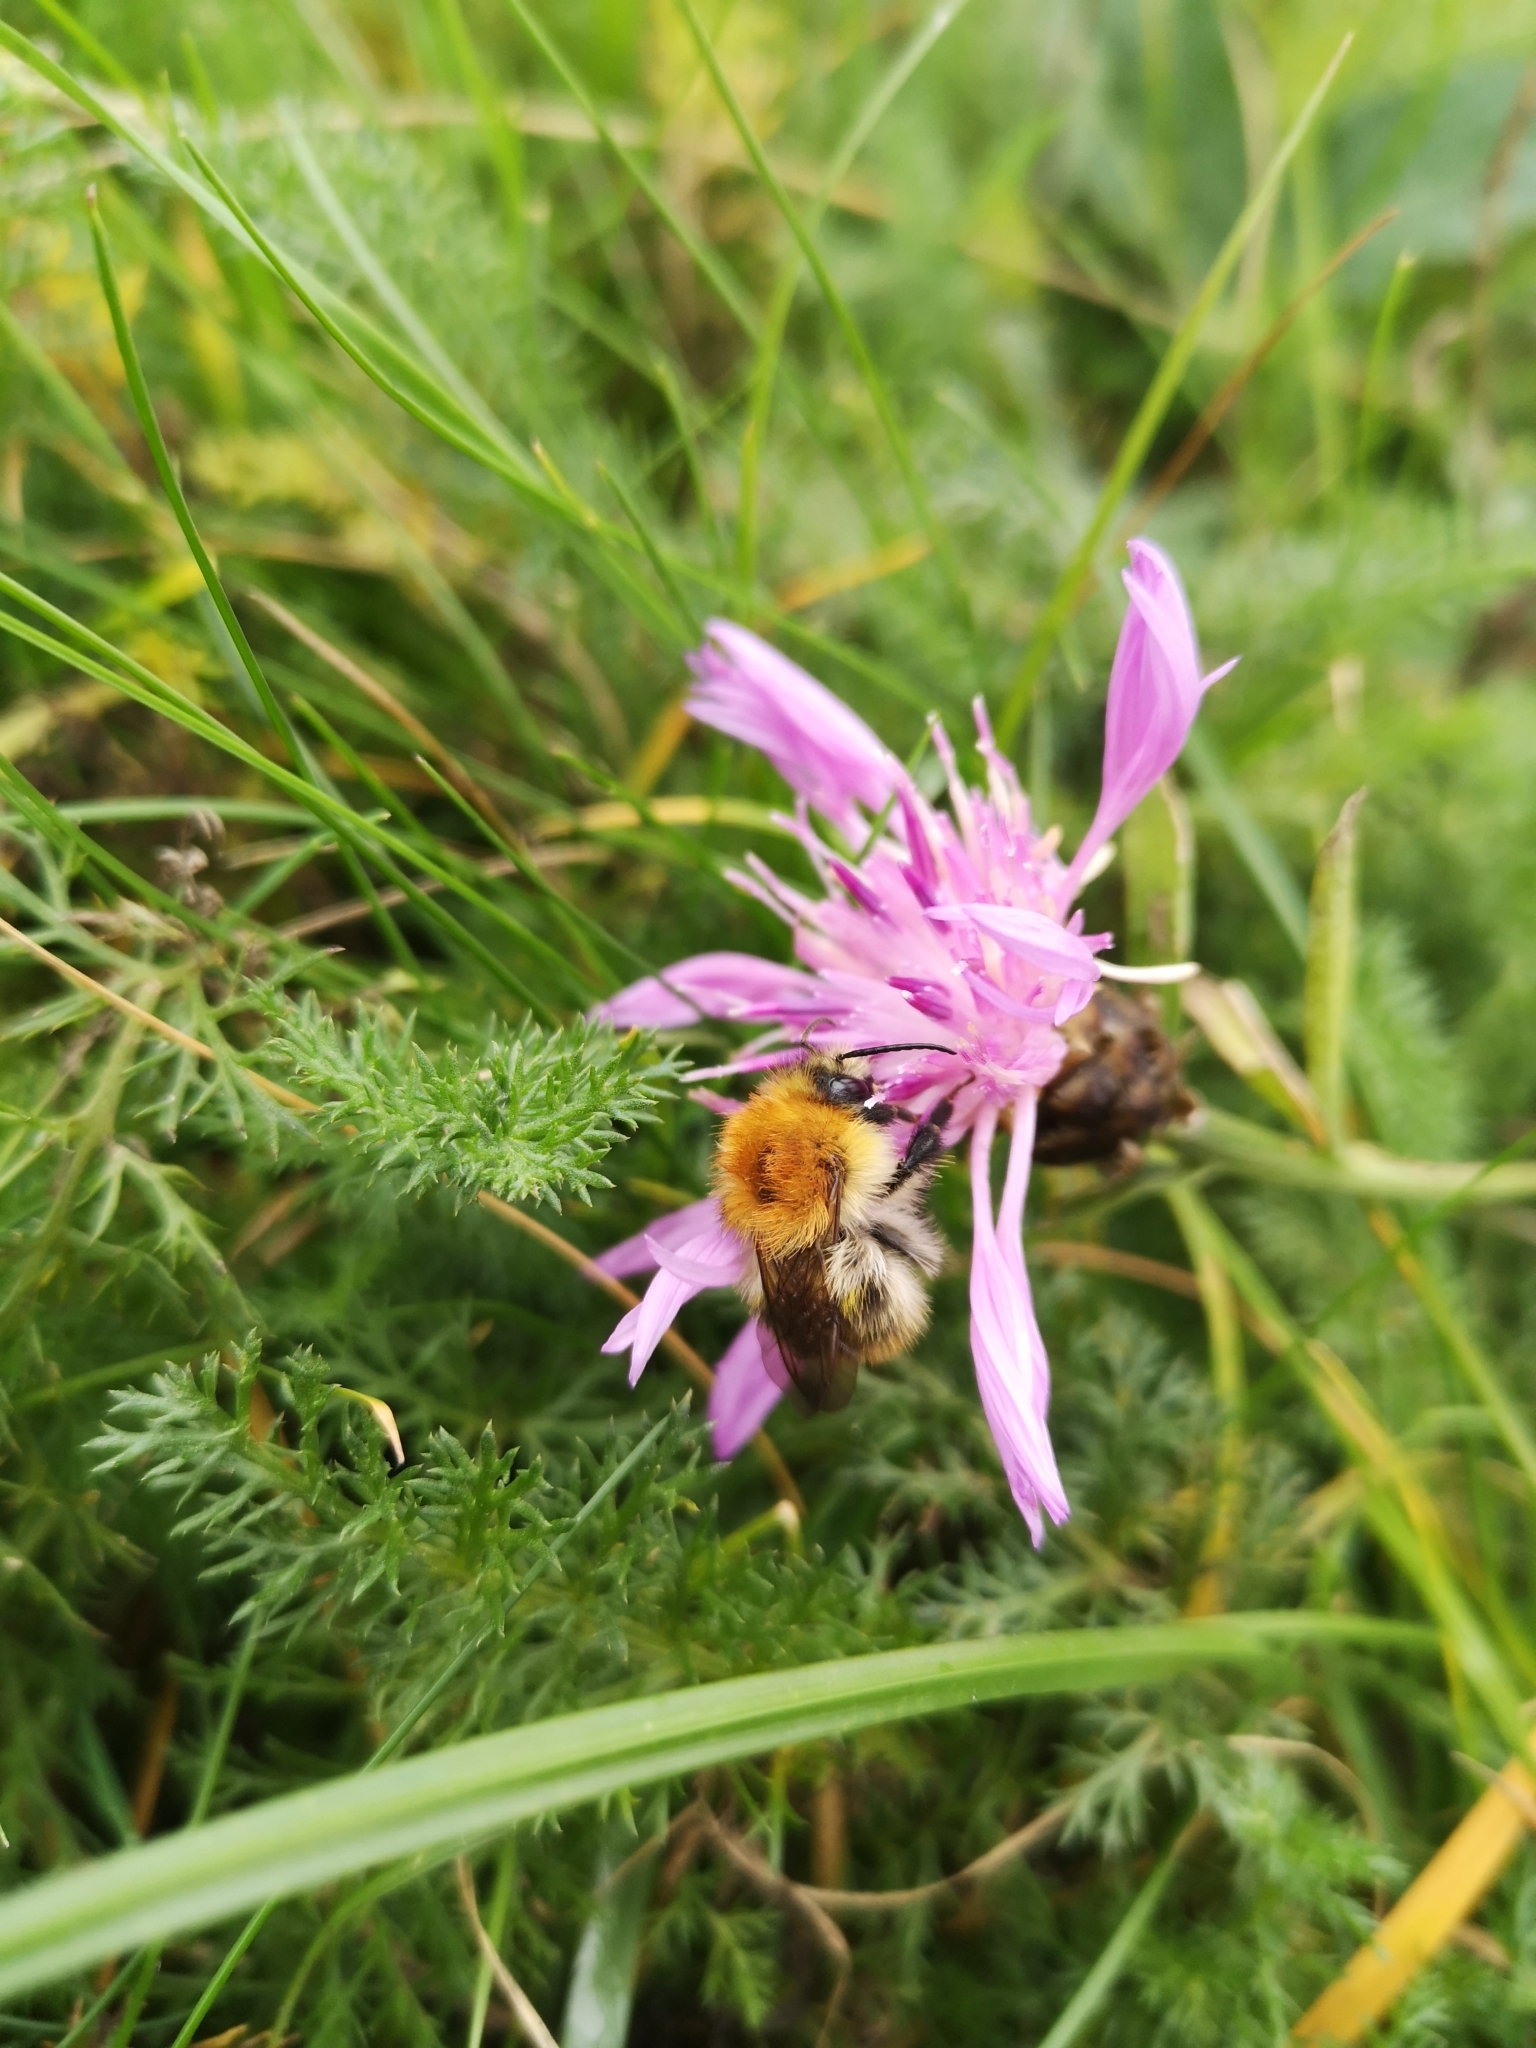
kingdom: Animalia
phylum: Arthropoda
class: Insecta
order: Hymenoptera
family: Apidae
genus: Bombus
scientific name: Bombus pascuorum
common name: Common carder bee
